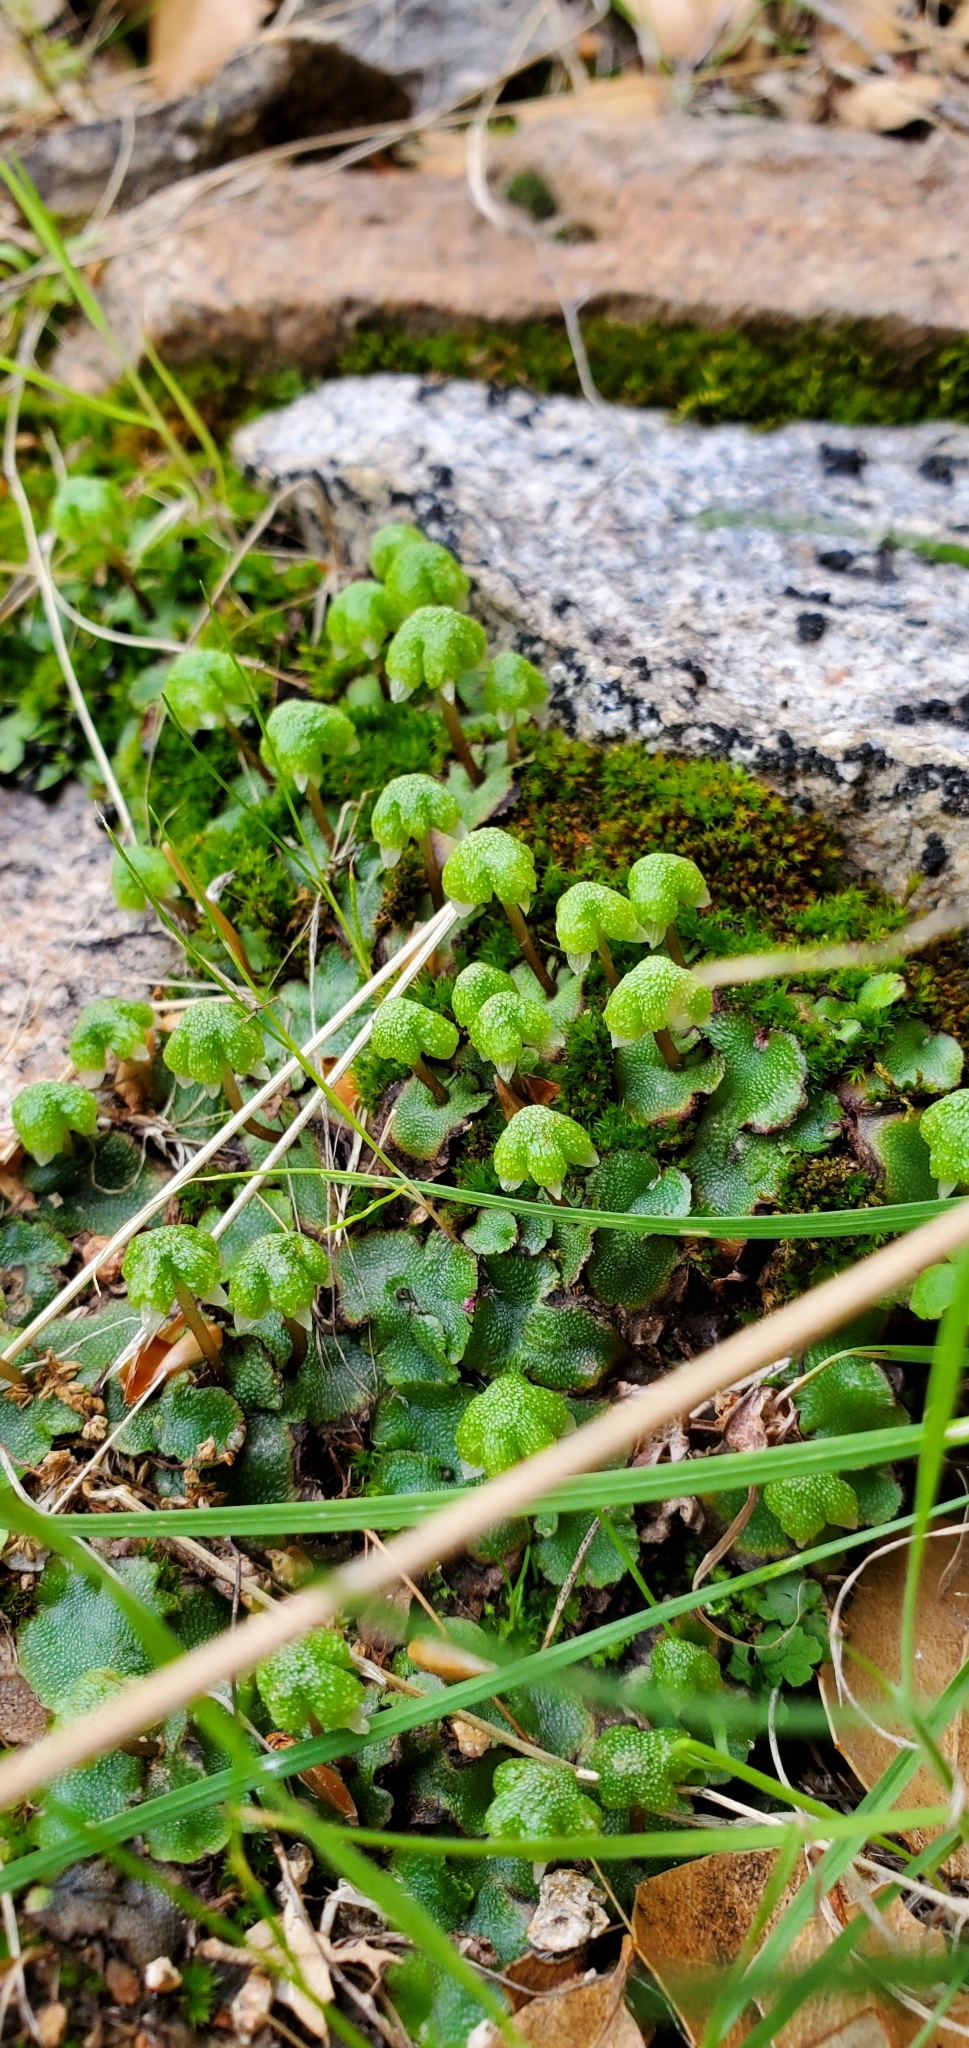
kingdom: Plantae
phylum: Marchantiophyta
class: Marchantiopsida
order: Marchantiales
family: Aytoniaceae
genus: Asterella
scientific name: Asterella californica
